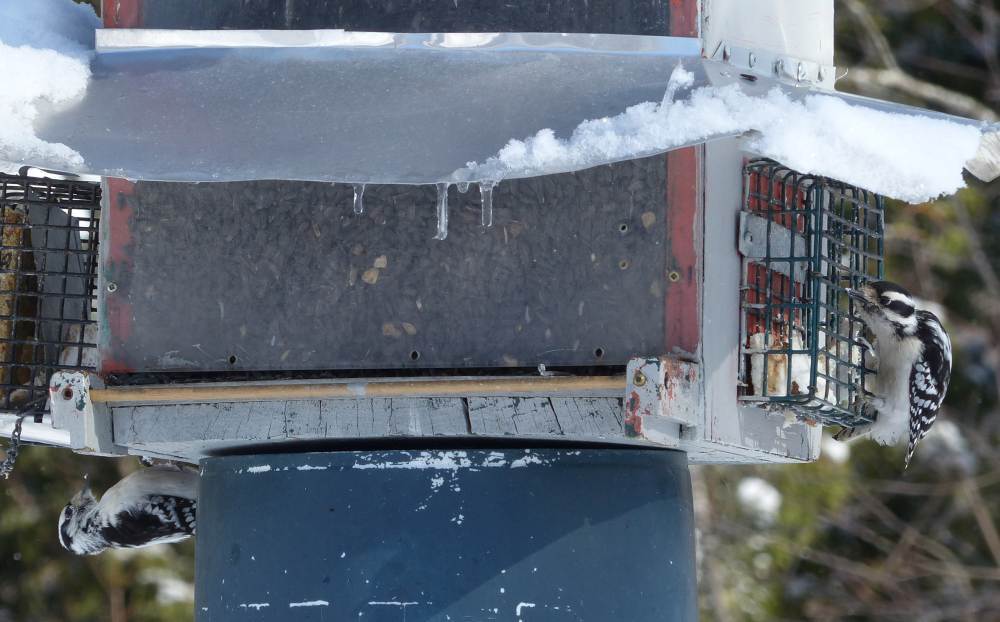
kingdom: Animalia
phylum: Chordata
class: Aves
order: Piciformes
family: Picidae
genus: Dryobates
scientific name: Dryobates pubescens
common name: Downy woodpecker
